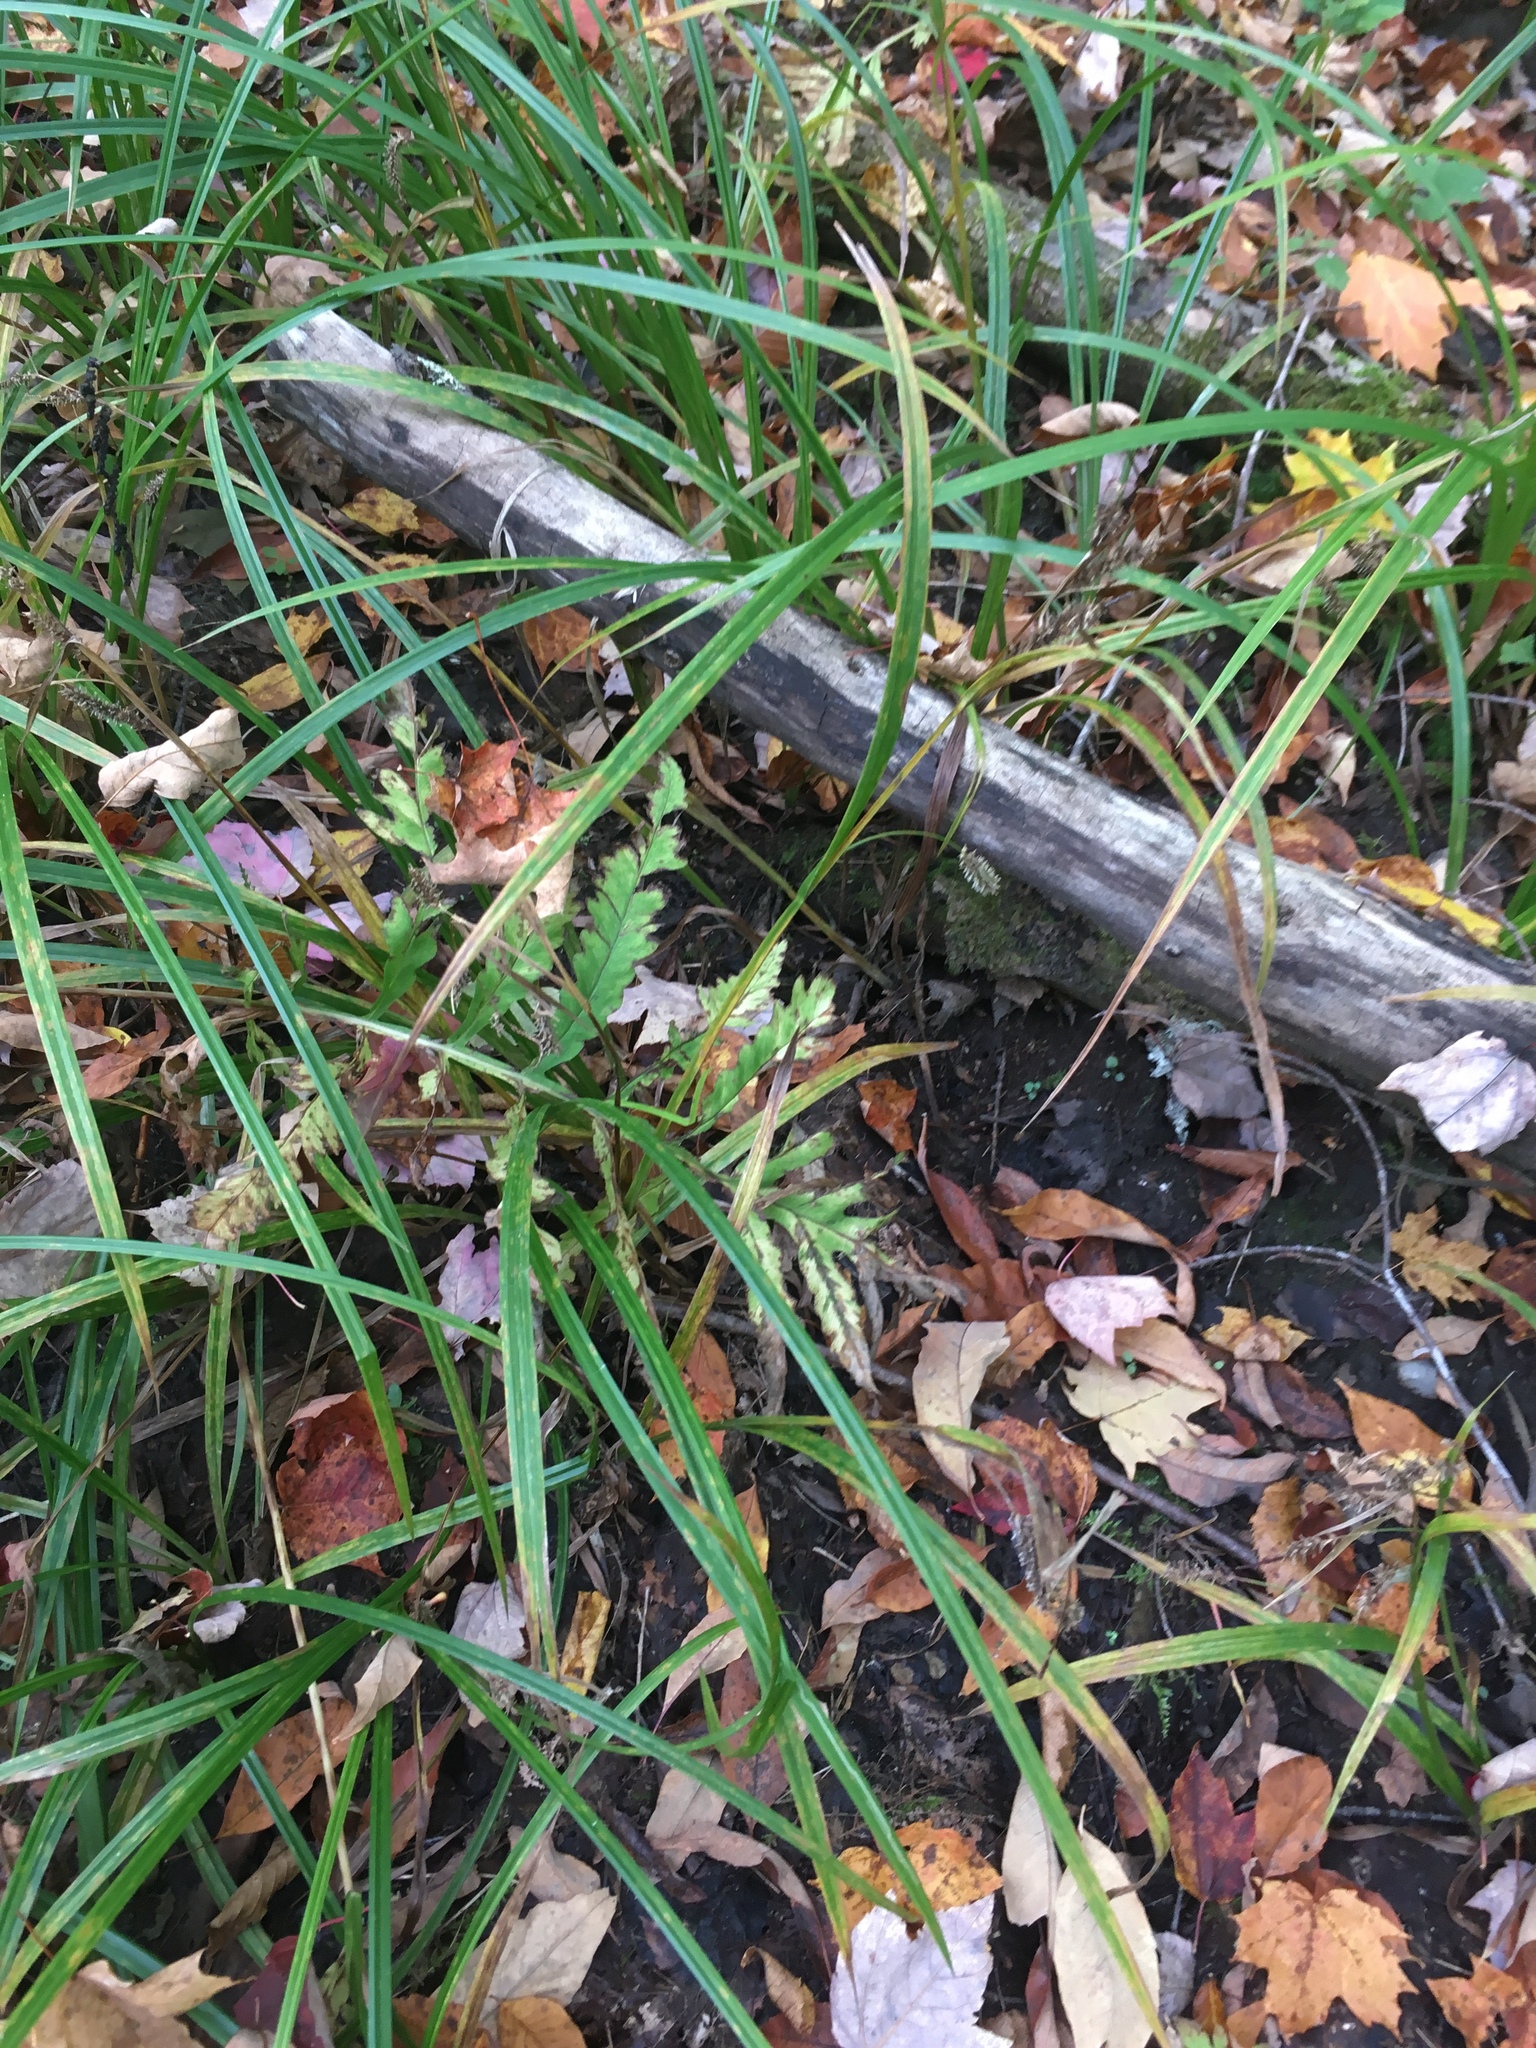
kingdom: Plantae
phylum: Tracheophyta
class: Liliopsida
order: Poales
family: Cyperaceae
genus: Carex
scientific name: Carex scabrata
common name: Eastern rough sedge
